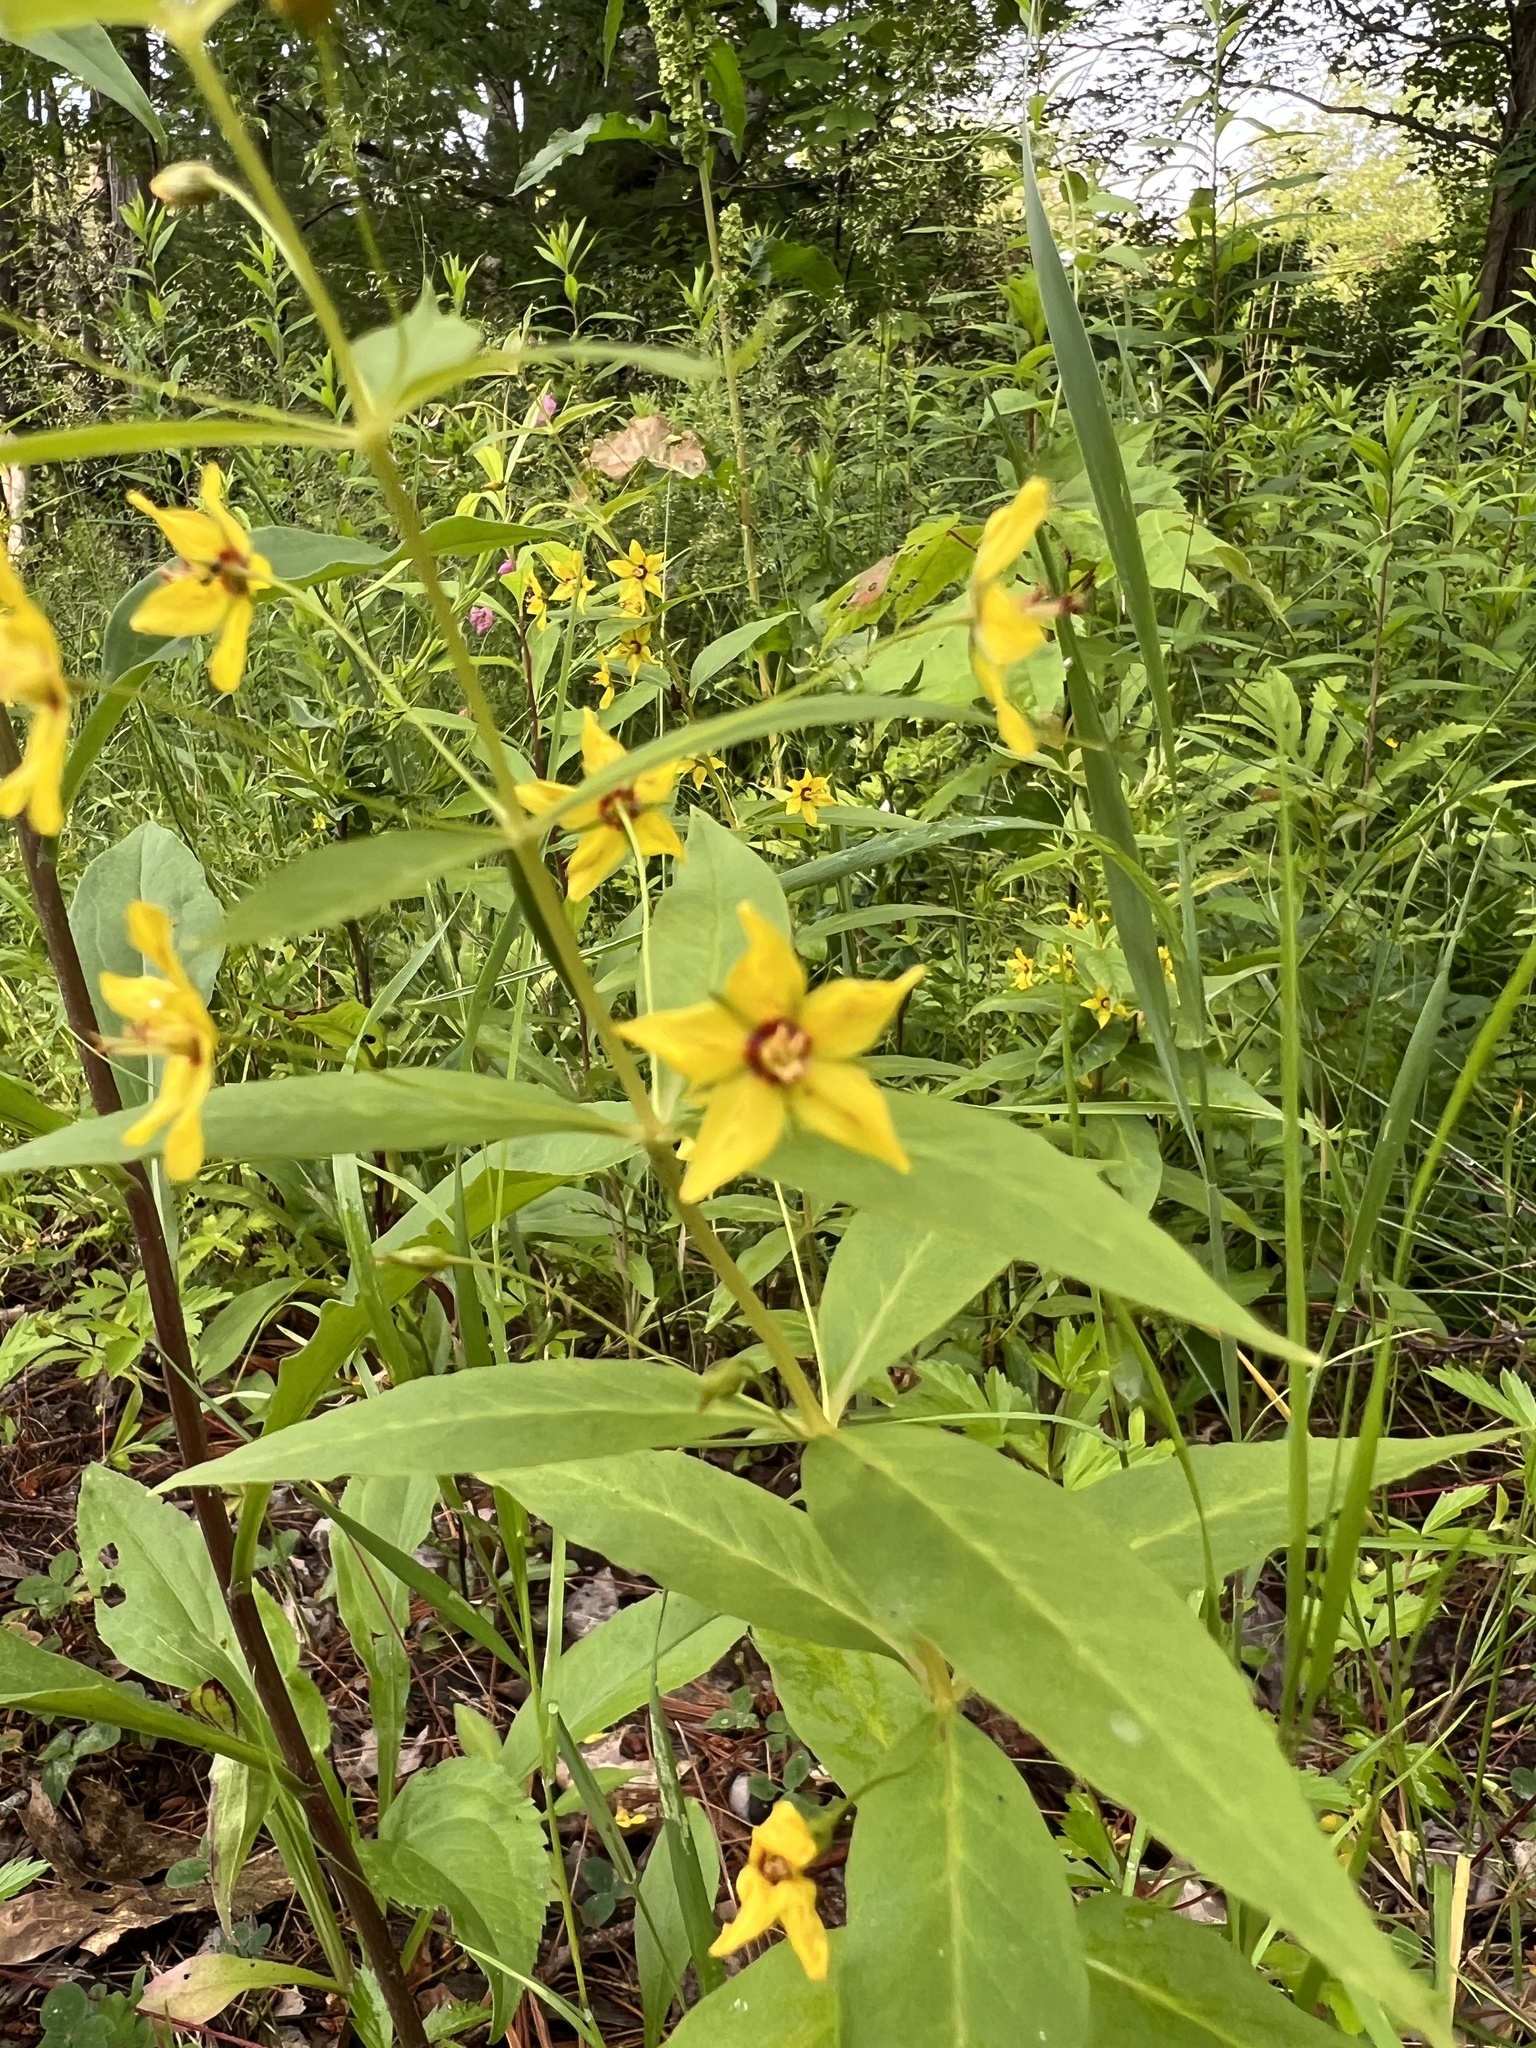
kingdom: Plantae
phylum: Tracheophyta
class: Magnoliopsida
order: Ericales
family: Primulaceae
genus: Lysimachia
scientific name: Lysimachia quadrifolia
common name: Whorled loosestrife
